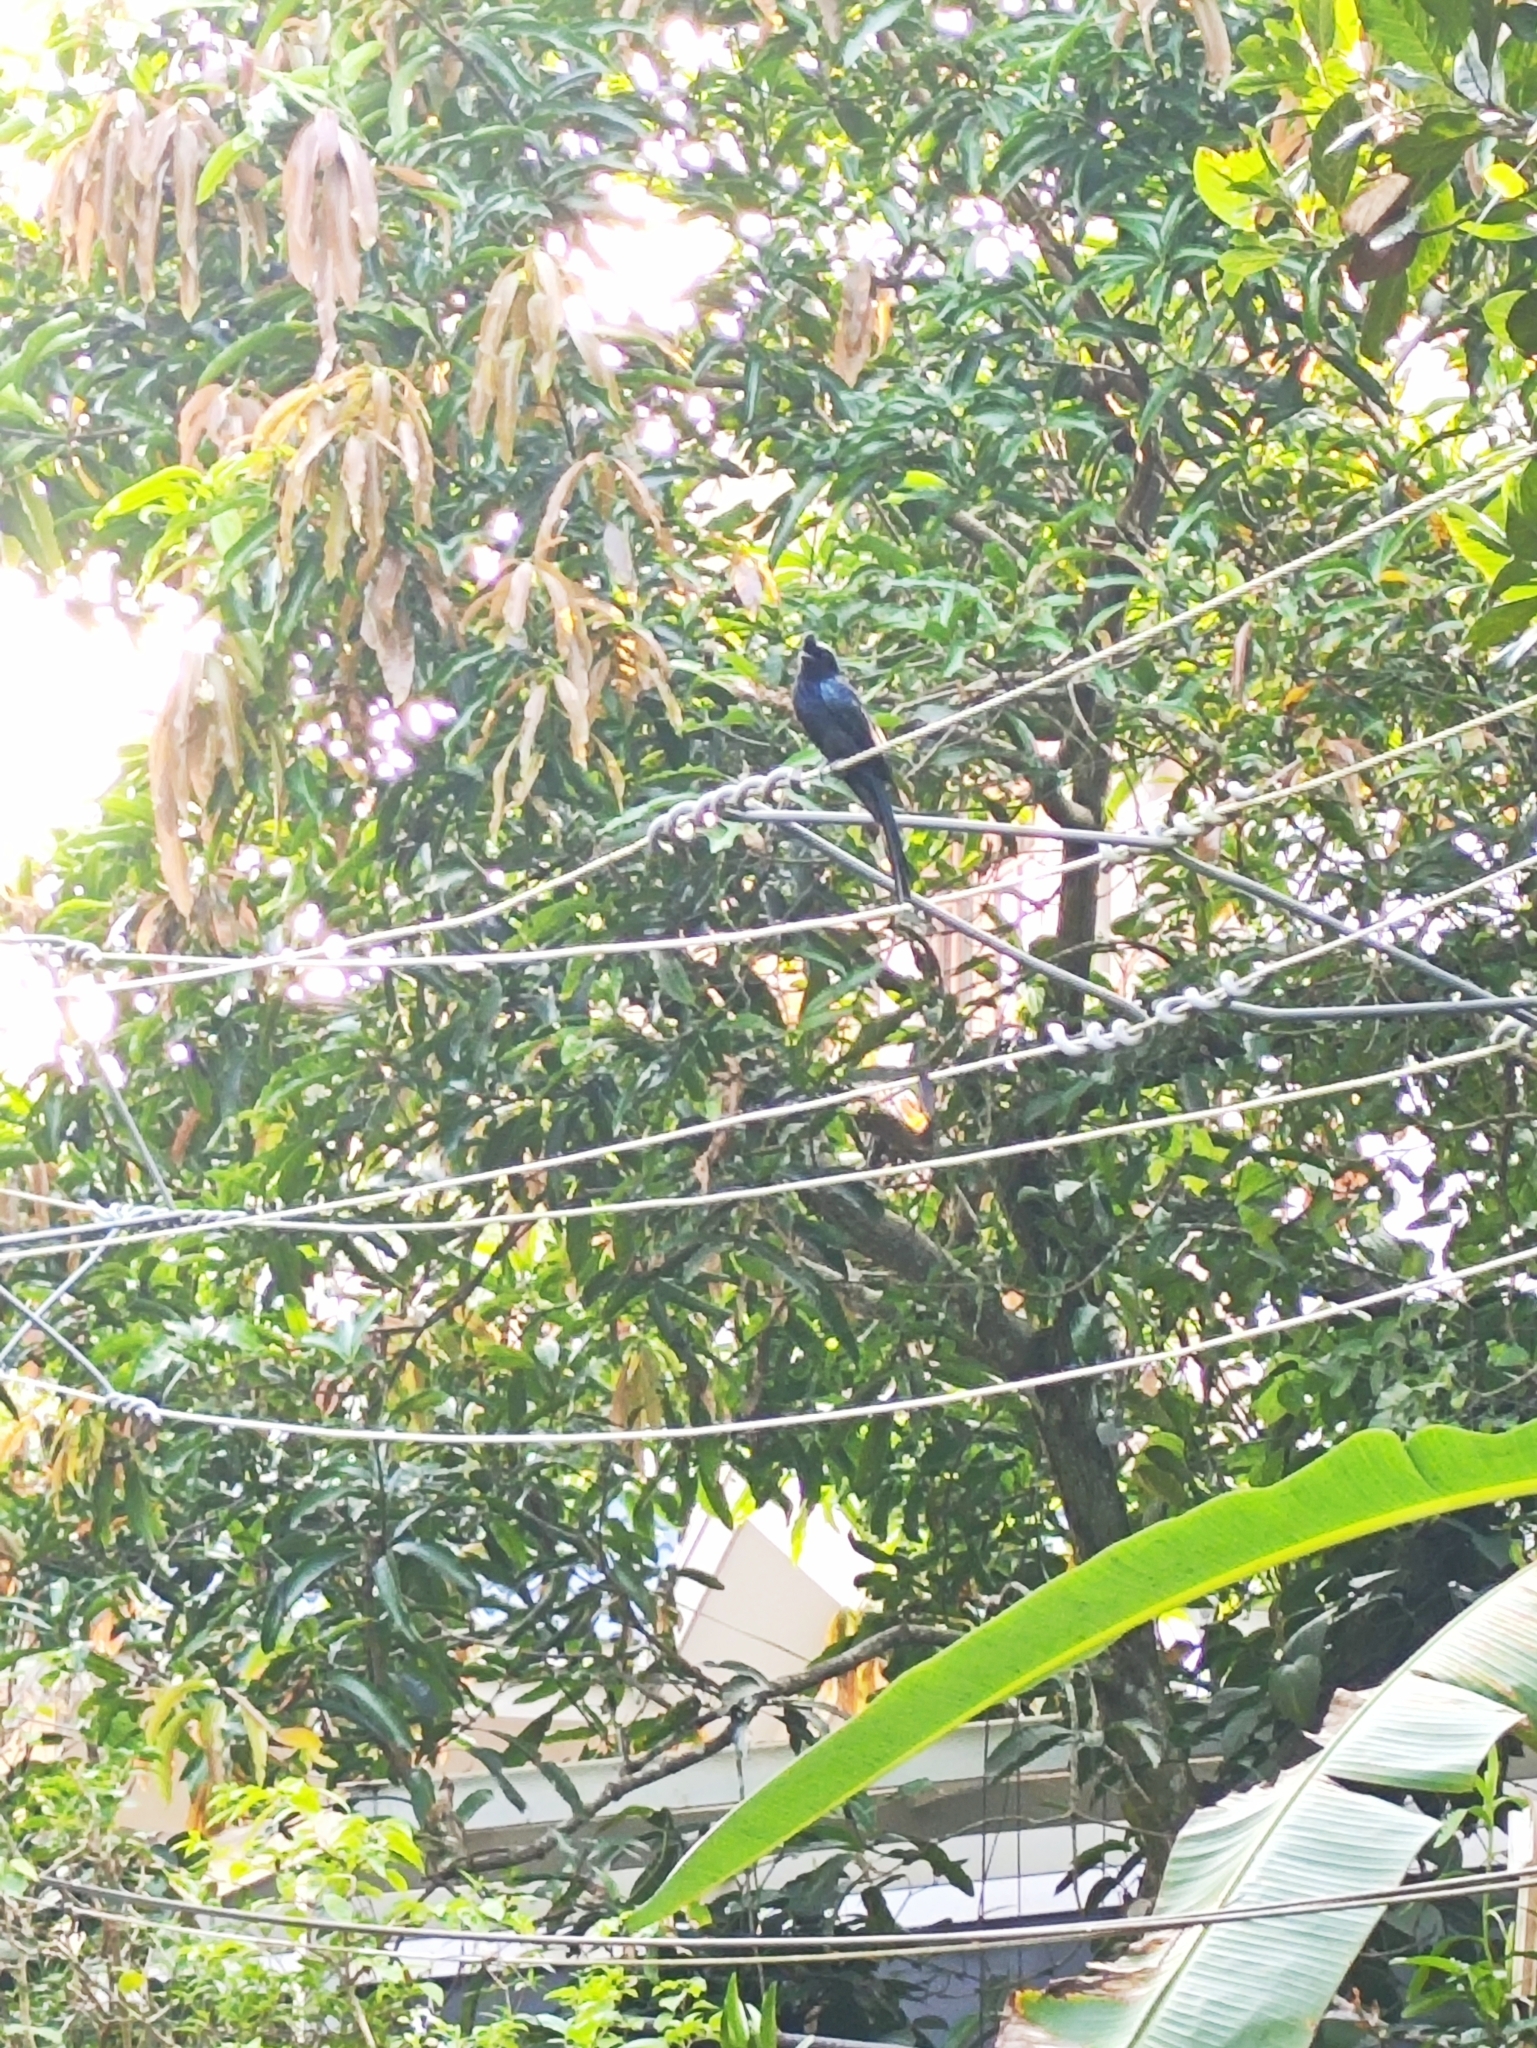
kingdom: Animalia
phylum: Chordata
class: Aves
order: Passeriformes
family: Dicruridae
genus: Dicrurus
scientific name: Dicrurus paradiseus
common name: Greater racket-tailed drongo
